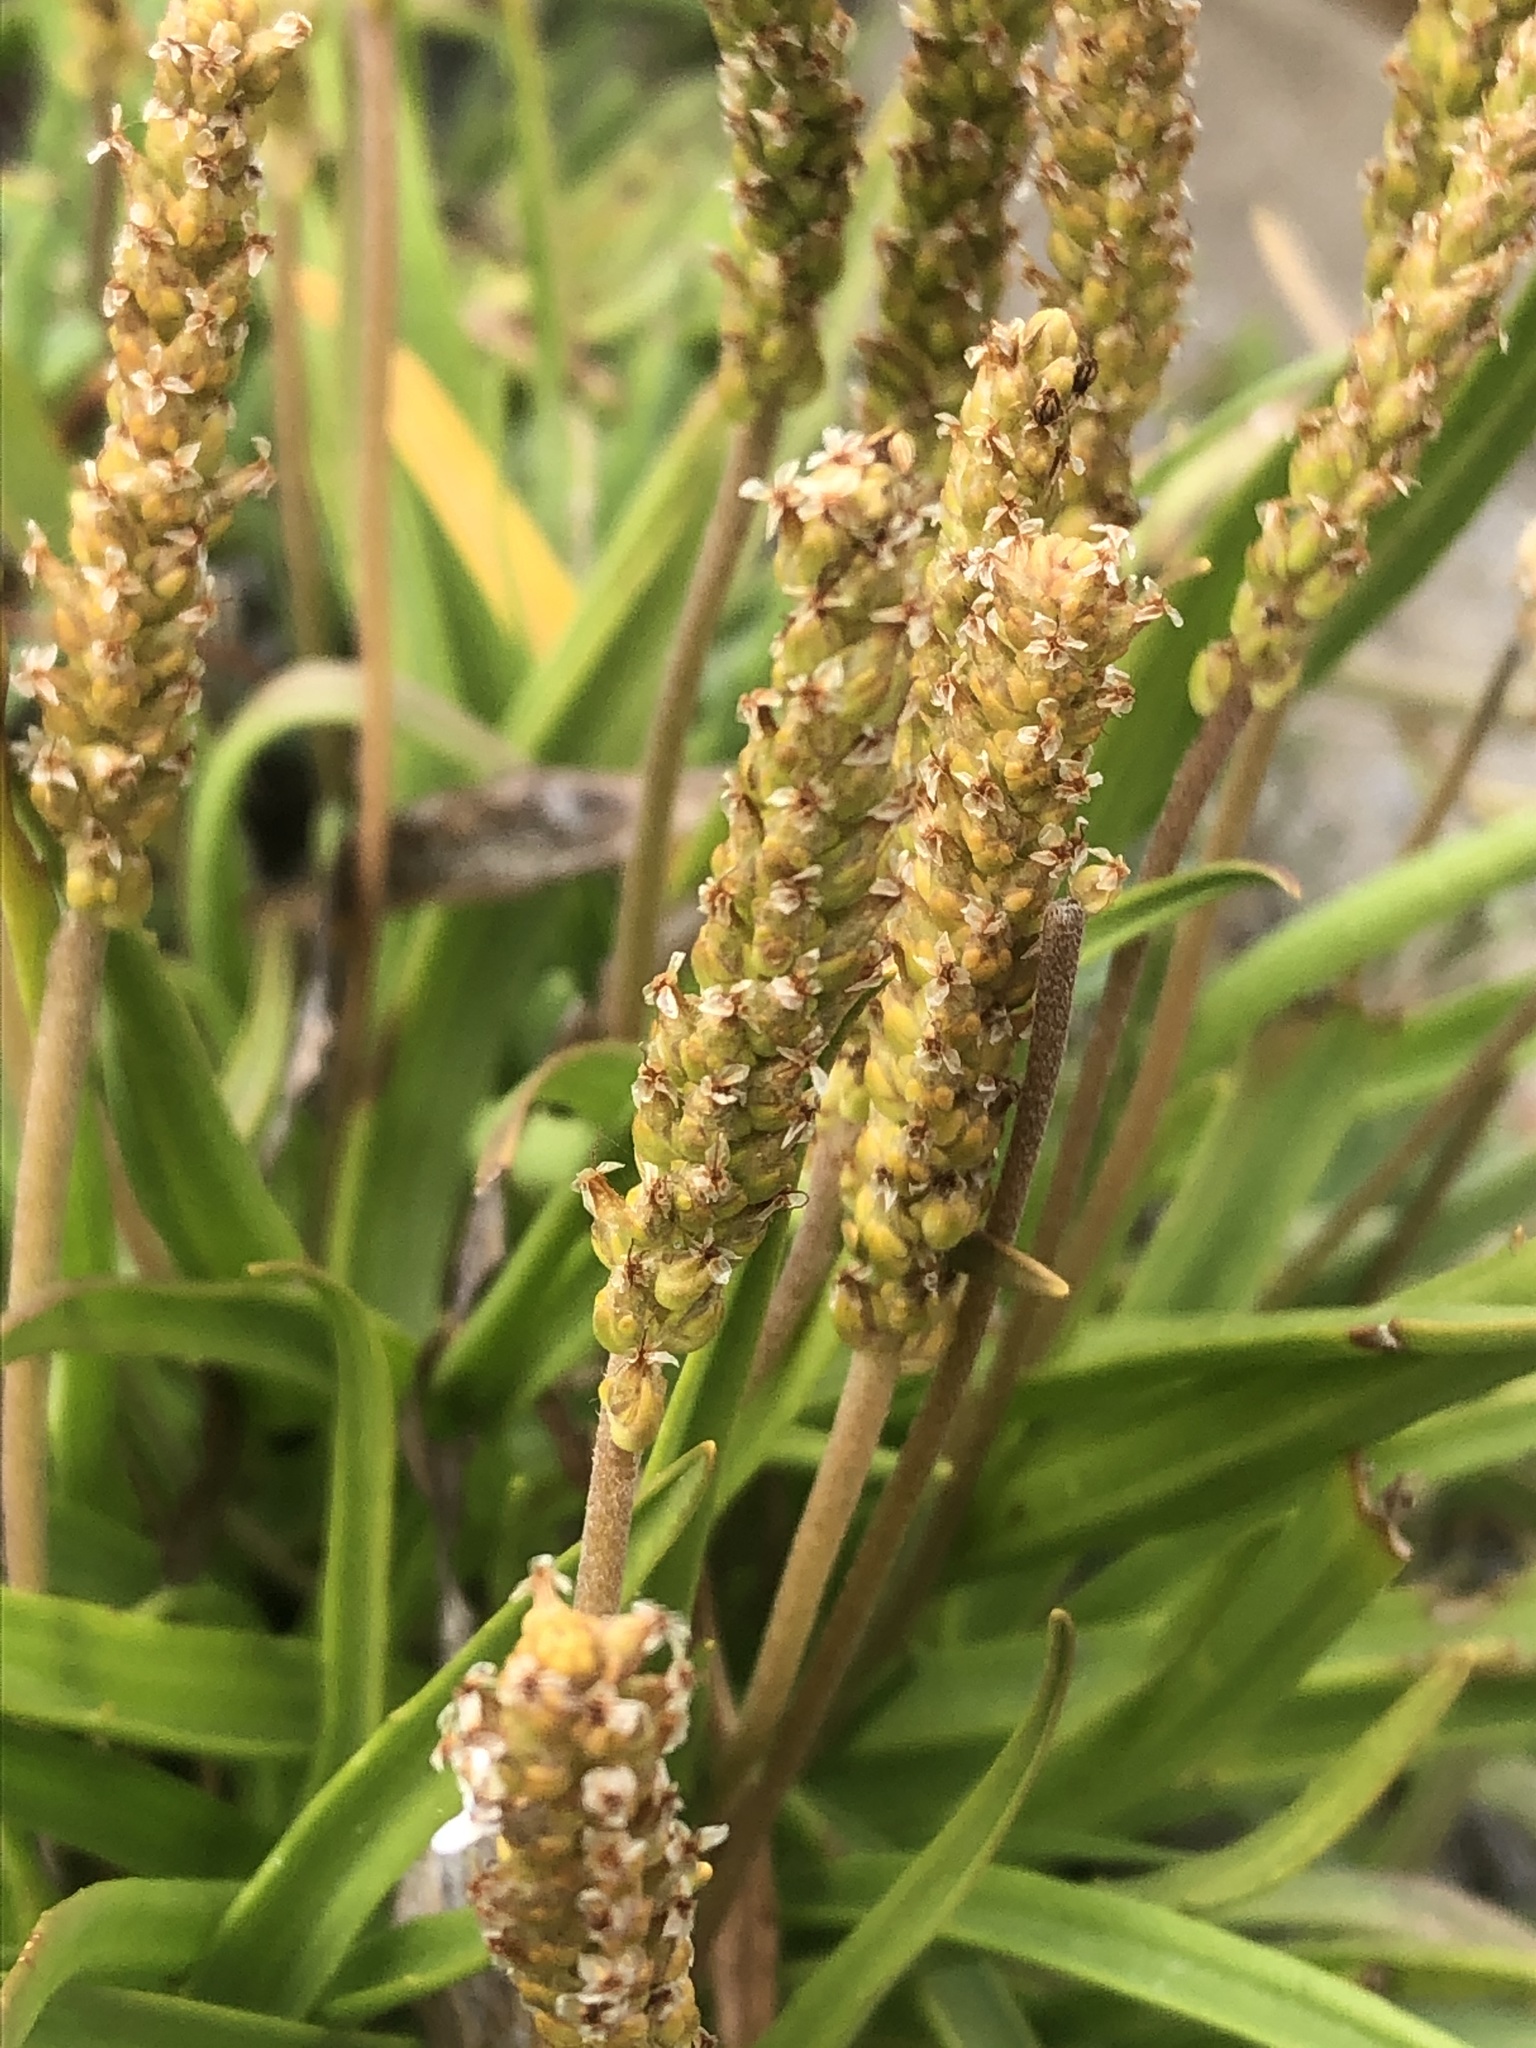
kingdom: Plantae
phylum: Tracheophyta
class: Magnoliopsida
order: Lamiales
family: Plantaginaceae
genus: Plantago
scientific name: Plantago maritima
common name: Sea plantain
